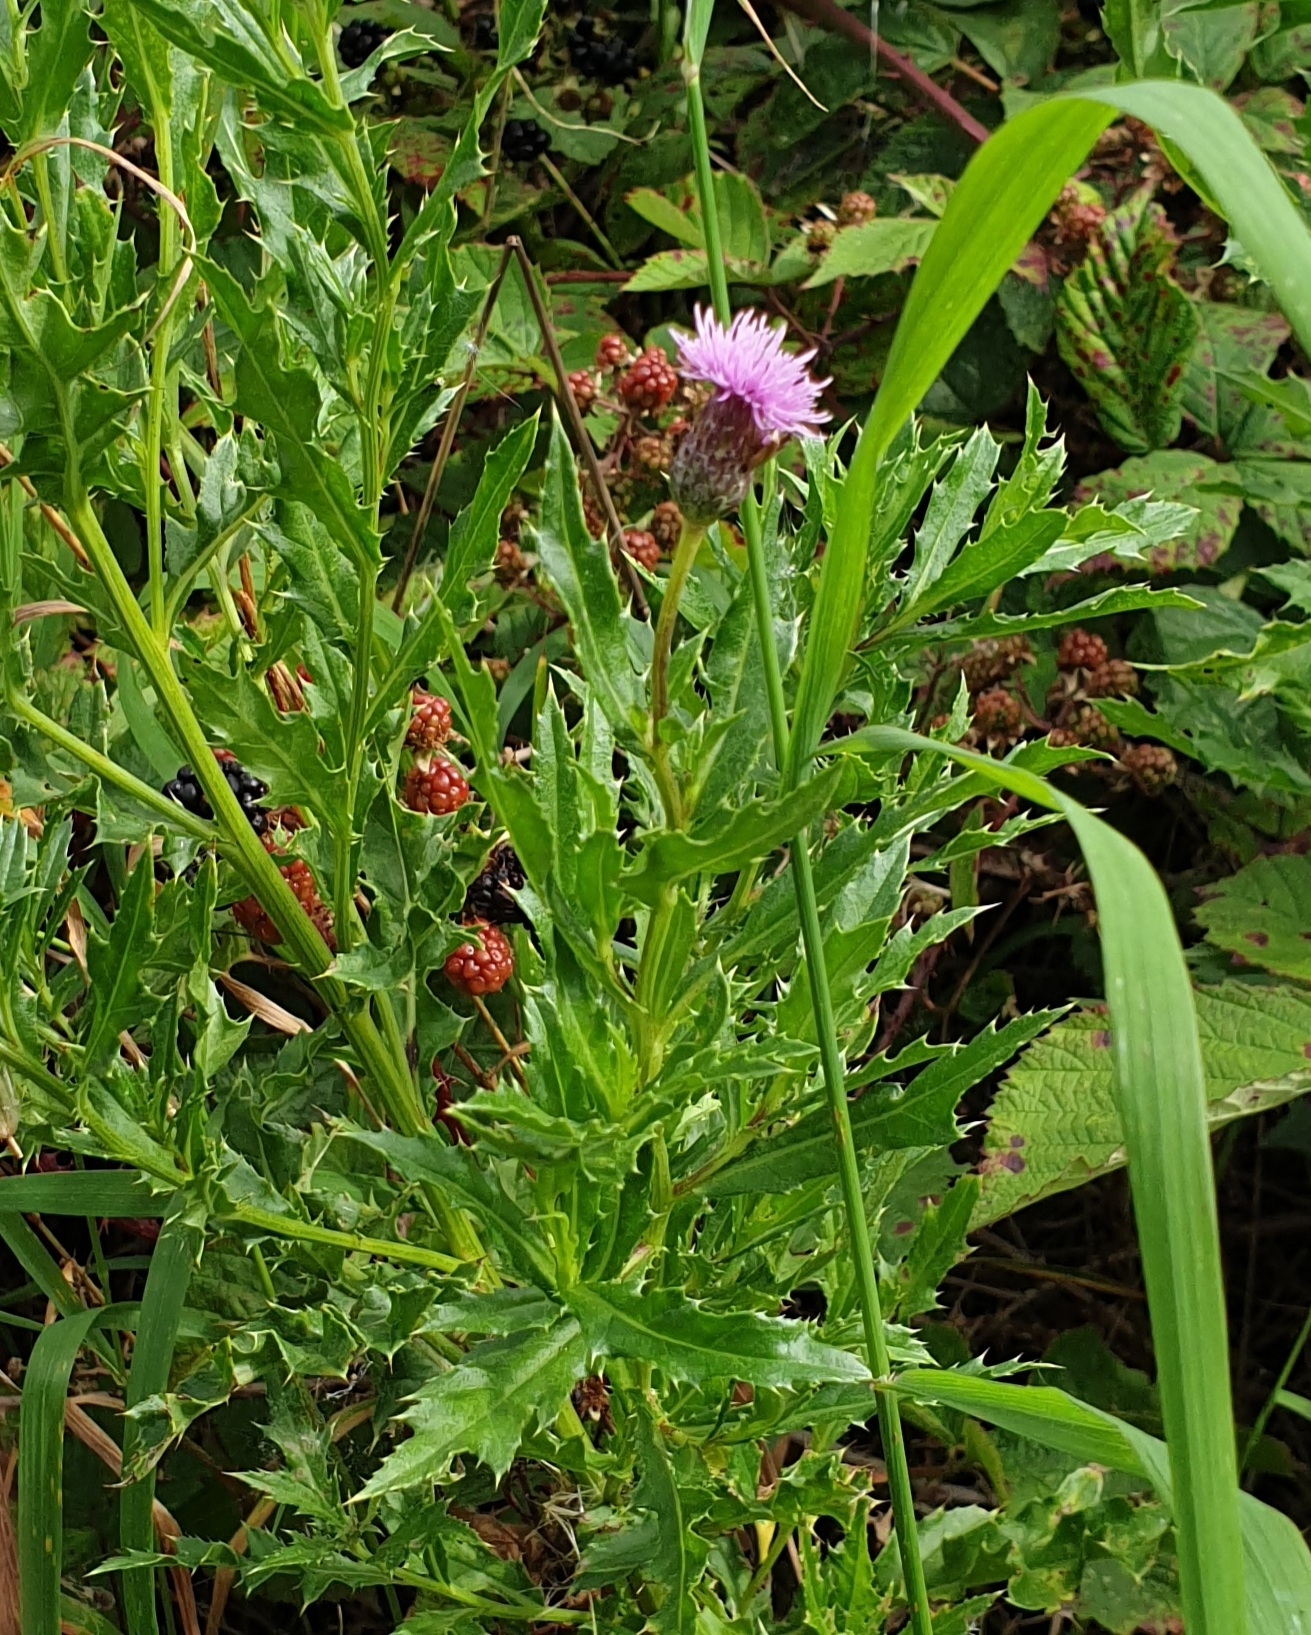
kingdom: Plantae
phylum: Tracheophyta
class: Magnoliopsida
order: Asterales
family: Asteraceae
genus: Cirsium
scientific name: Cirsium arvense
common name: Creeping thistle
